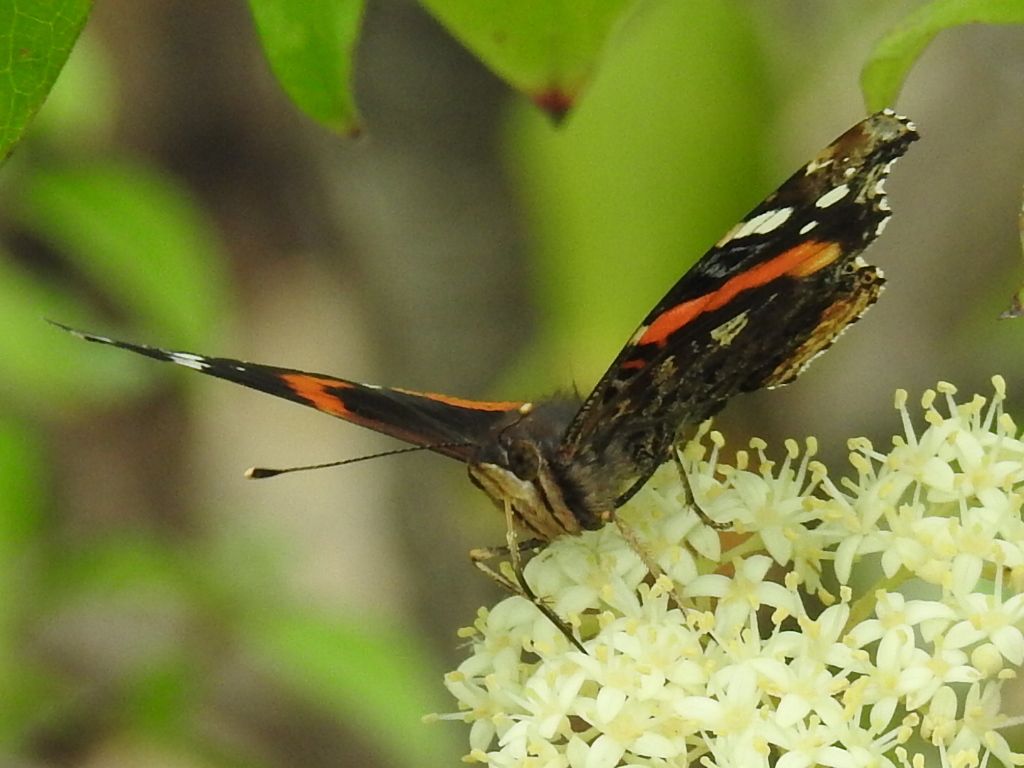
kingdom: Animalia
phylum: Arthropoda
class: Insecta
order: Lepidoptera
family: Nymphalidae
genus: Vanessa
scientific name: Vanessa atalanta
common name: Red admiral
